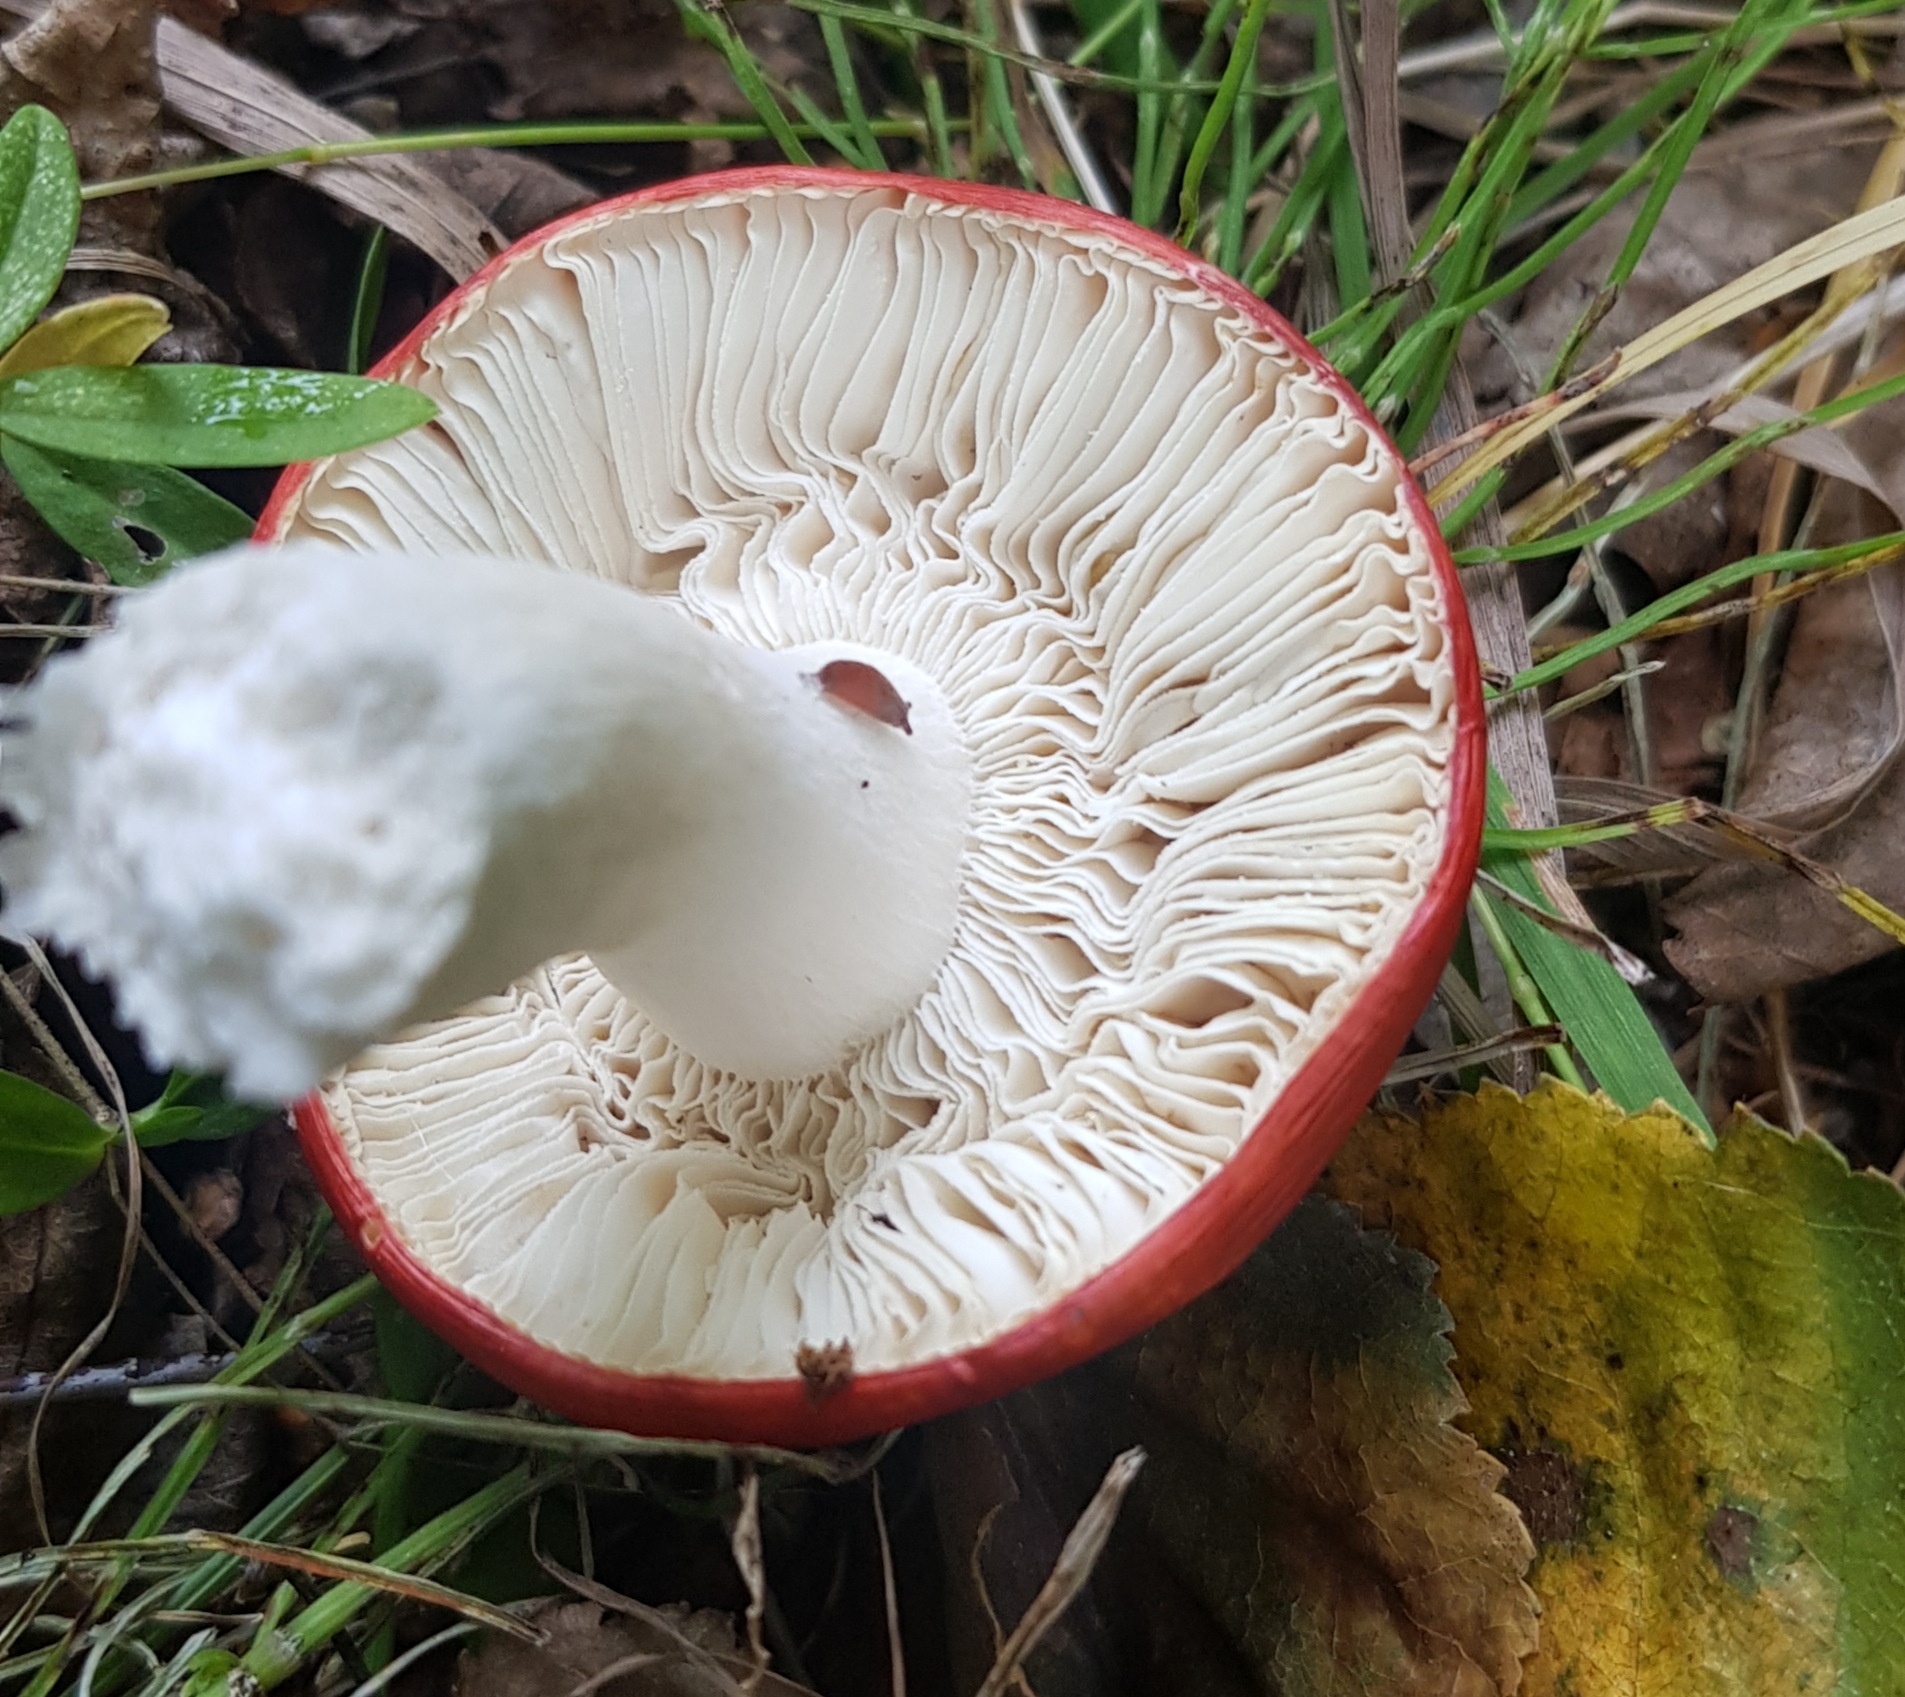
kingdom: Fungi
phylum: Basidiomycota
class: Agaricomycetes
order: Russulales
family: Russulaceae
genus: Russula
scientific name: Russula
